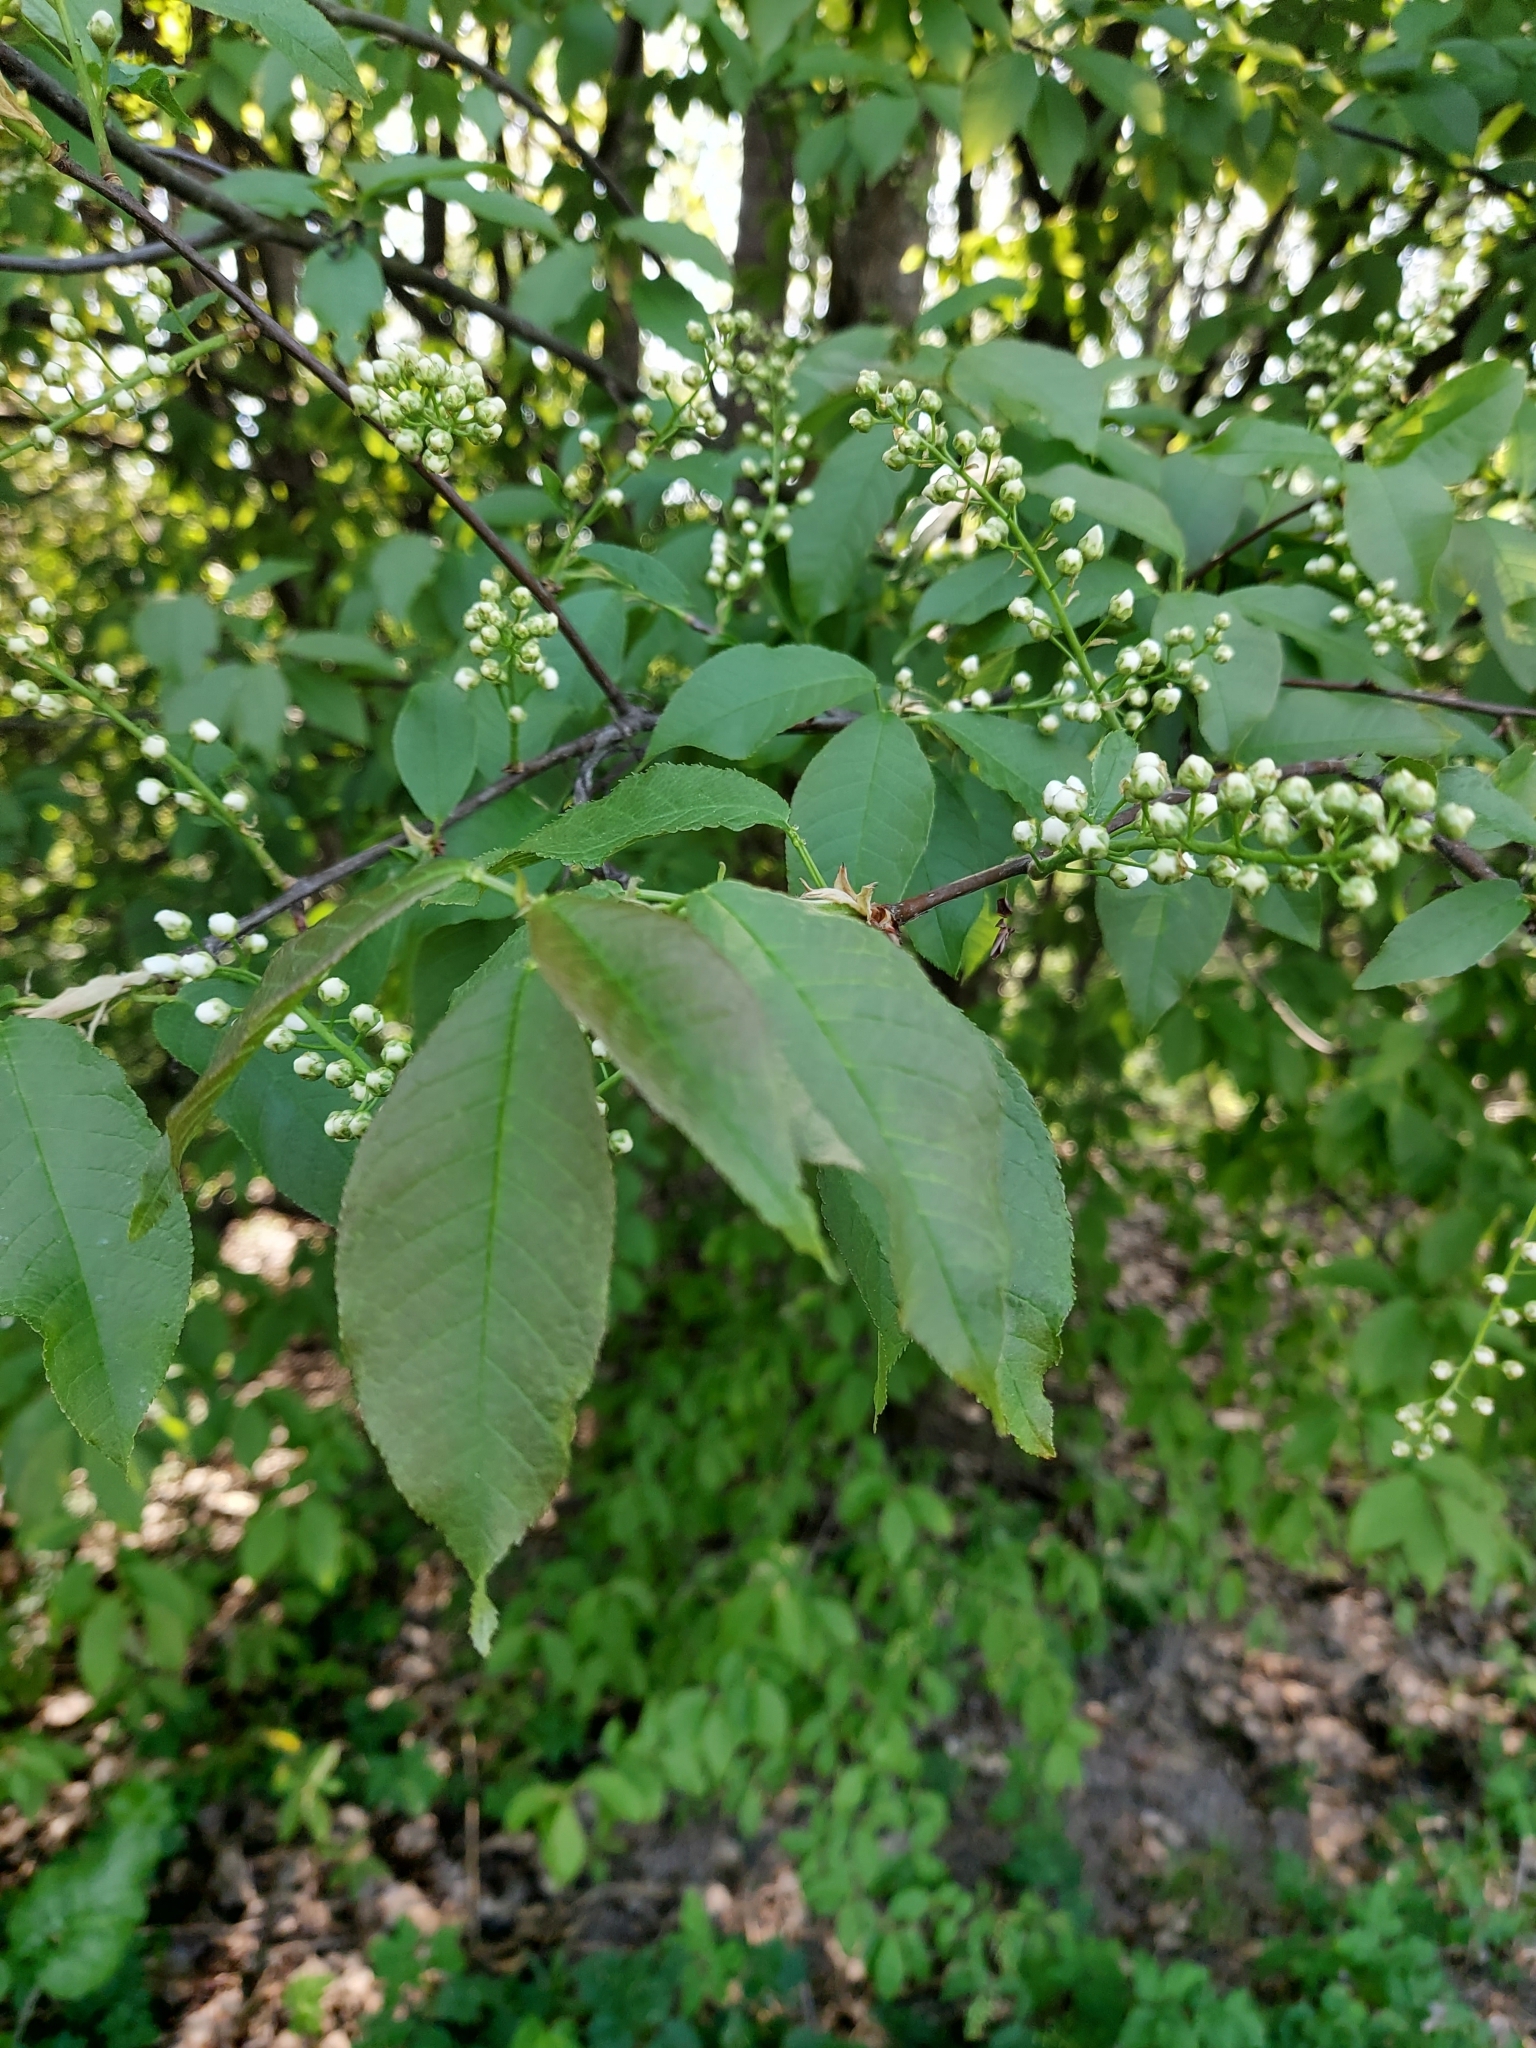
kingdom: Plantae
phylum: Tracheophyta
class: Magnoliopsida
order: Rosales
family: Rosaceae
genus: Prunus
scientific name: Prunus padus
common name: Bird cherry
